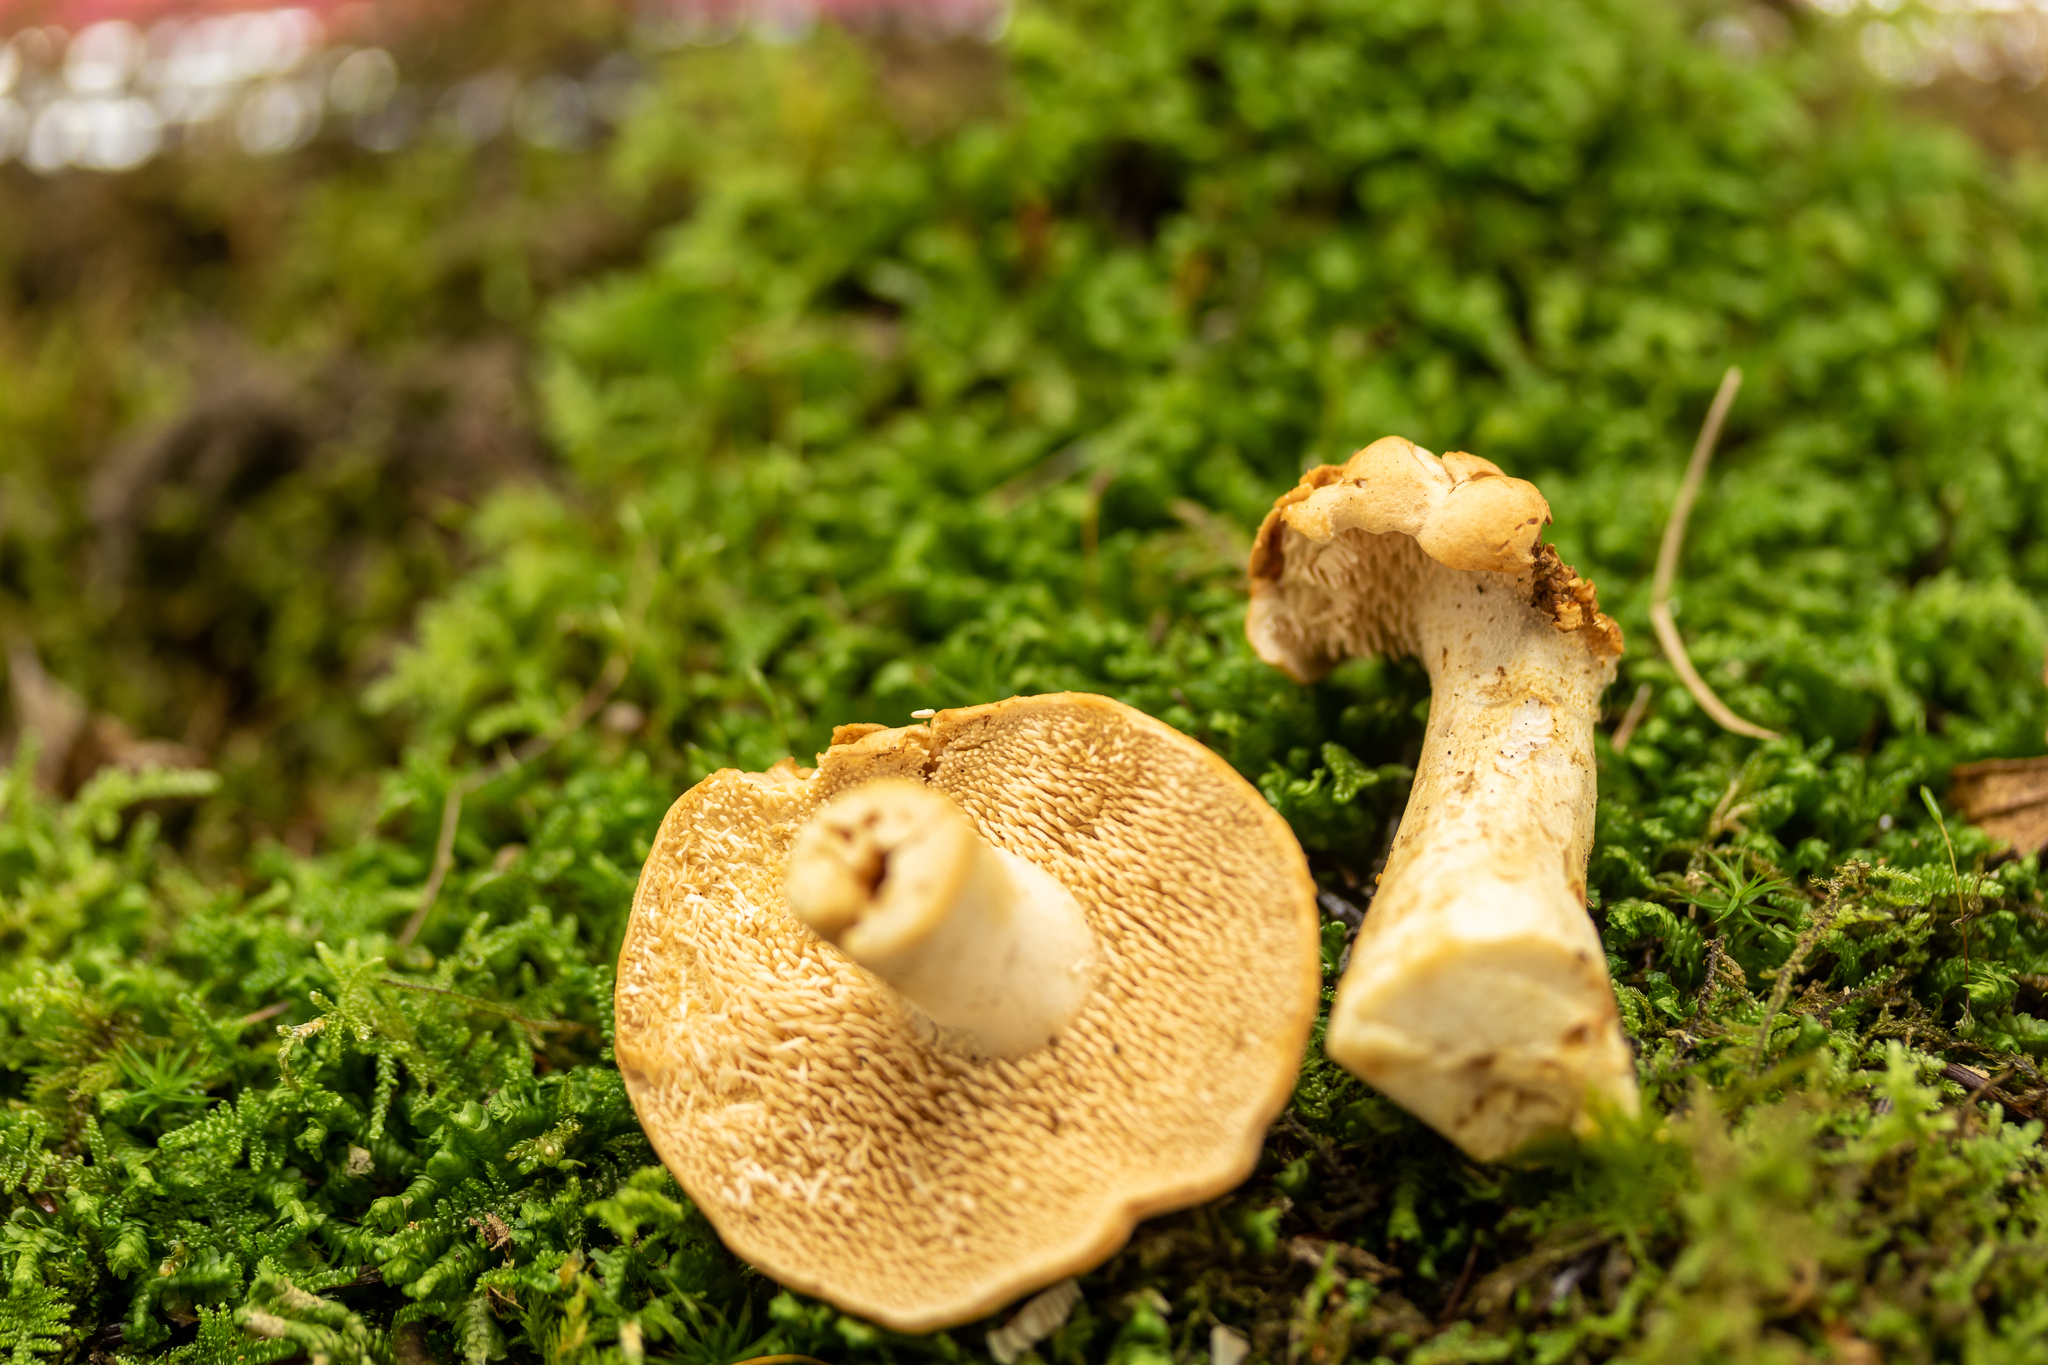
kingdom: Fungi
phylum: Basidiomycota
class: Agaricomycetes
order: Cantharellales
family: Hydnaceae
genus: Hydnum
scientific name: Hydnum subconnatum
